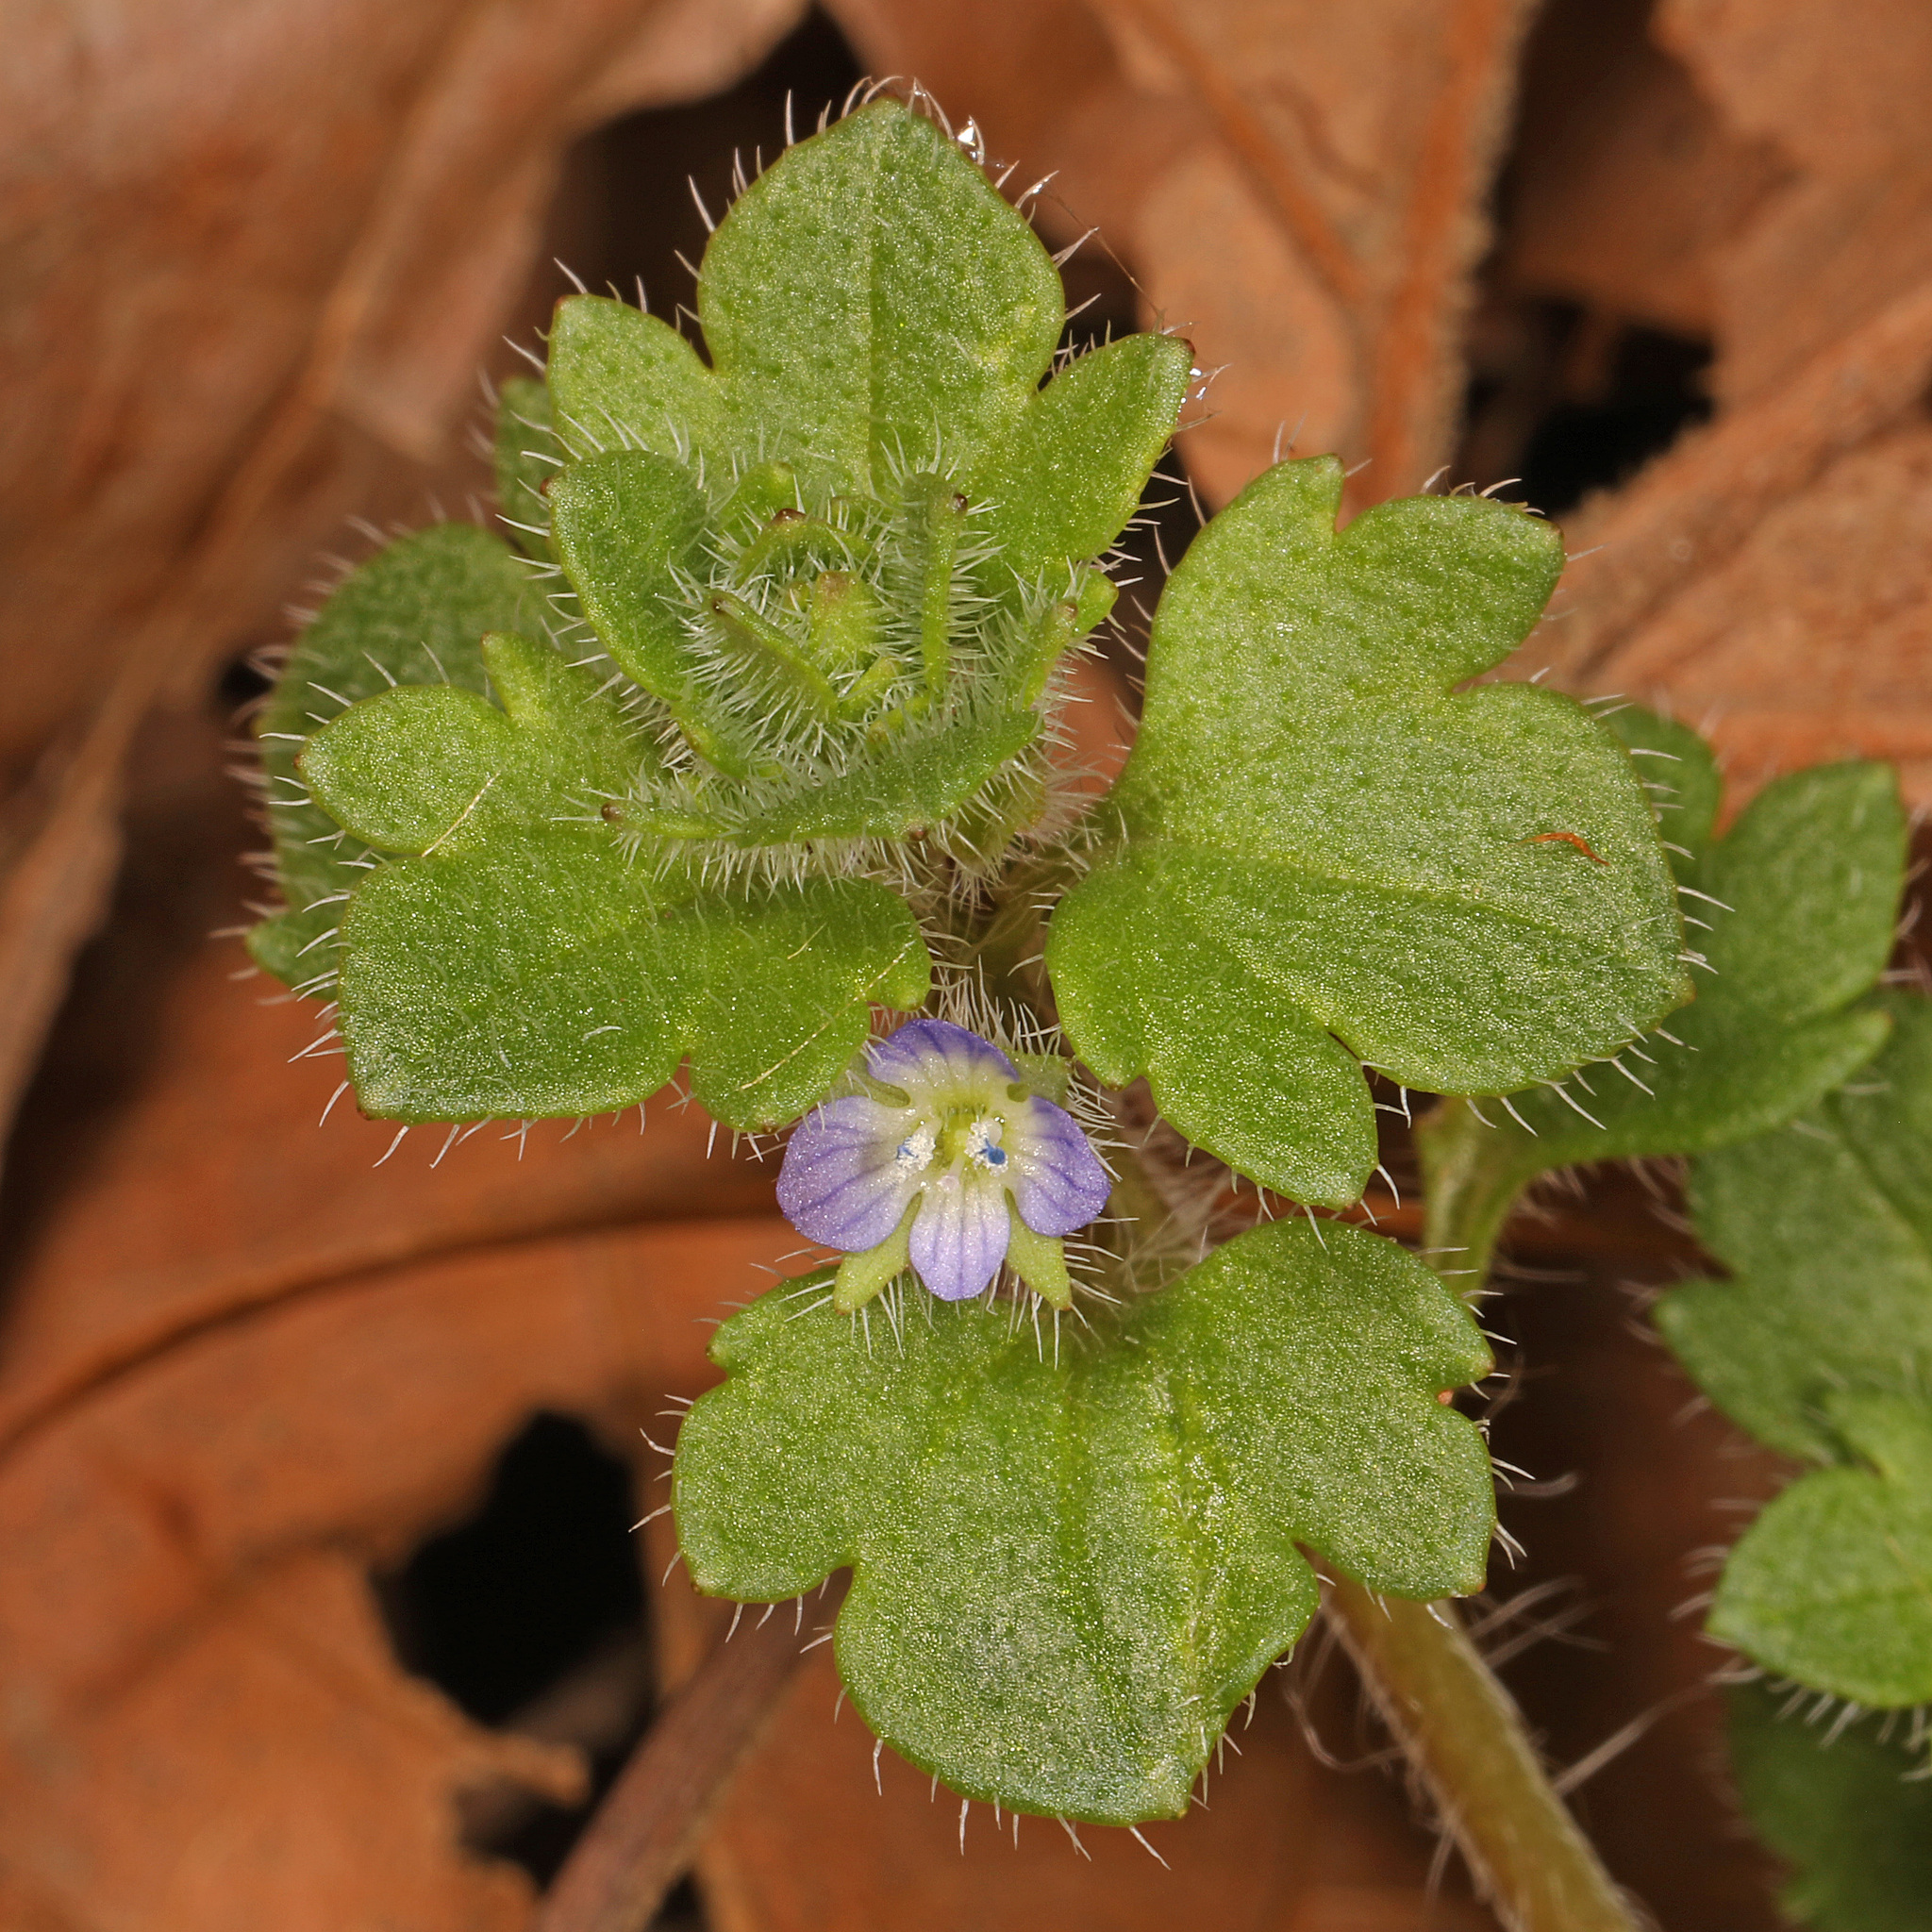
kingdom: Plantae
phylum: Tracheophyta
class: Magnoliopsida
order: Lamiales
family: Plantaginaceae
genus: Veronica
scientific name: Veronica hederifolia
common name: Ivy-leaved speedwell
